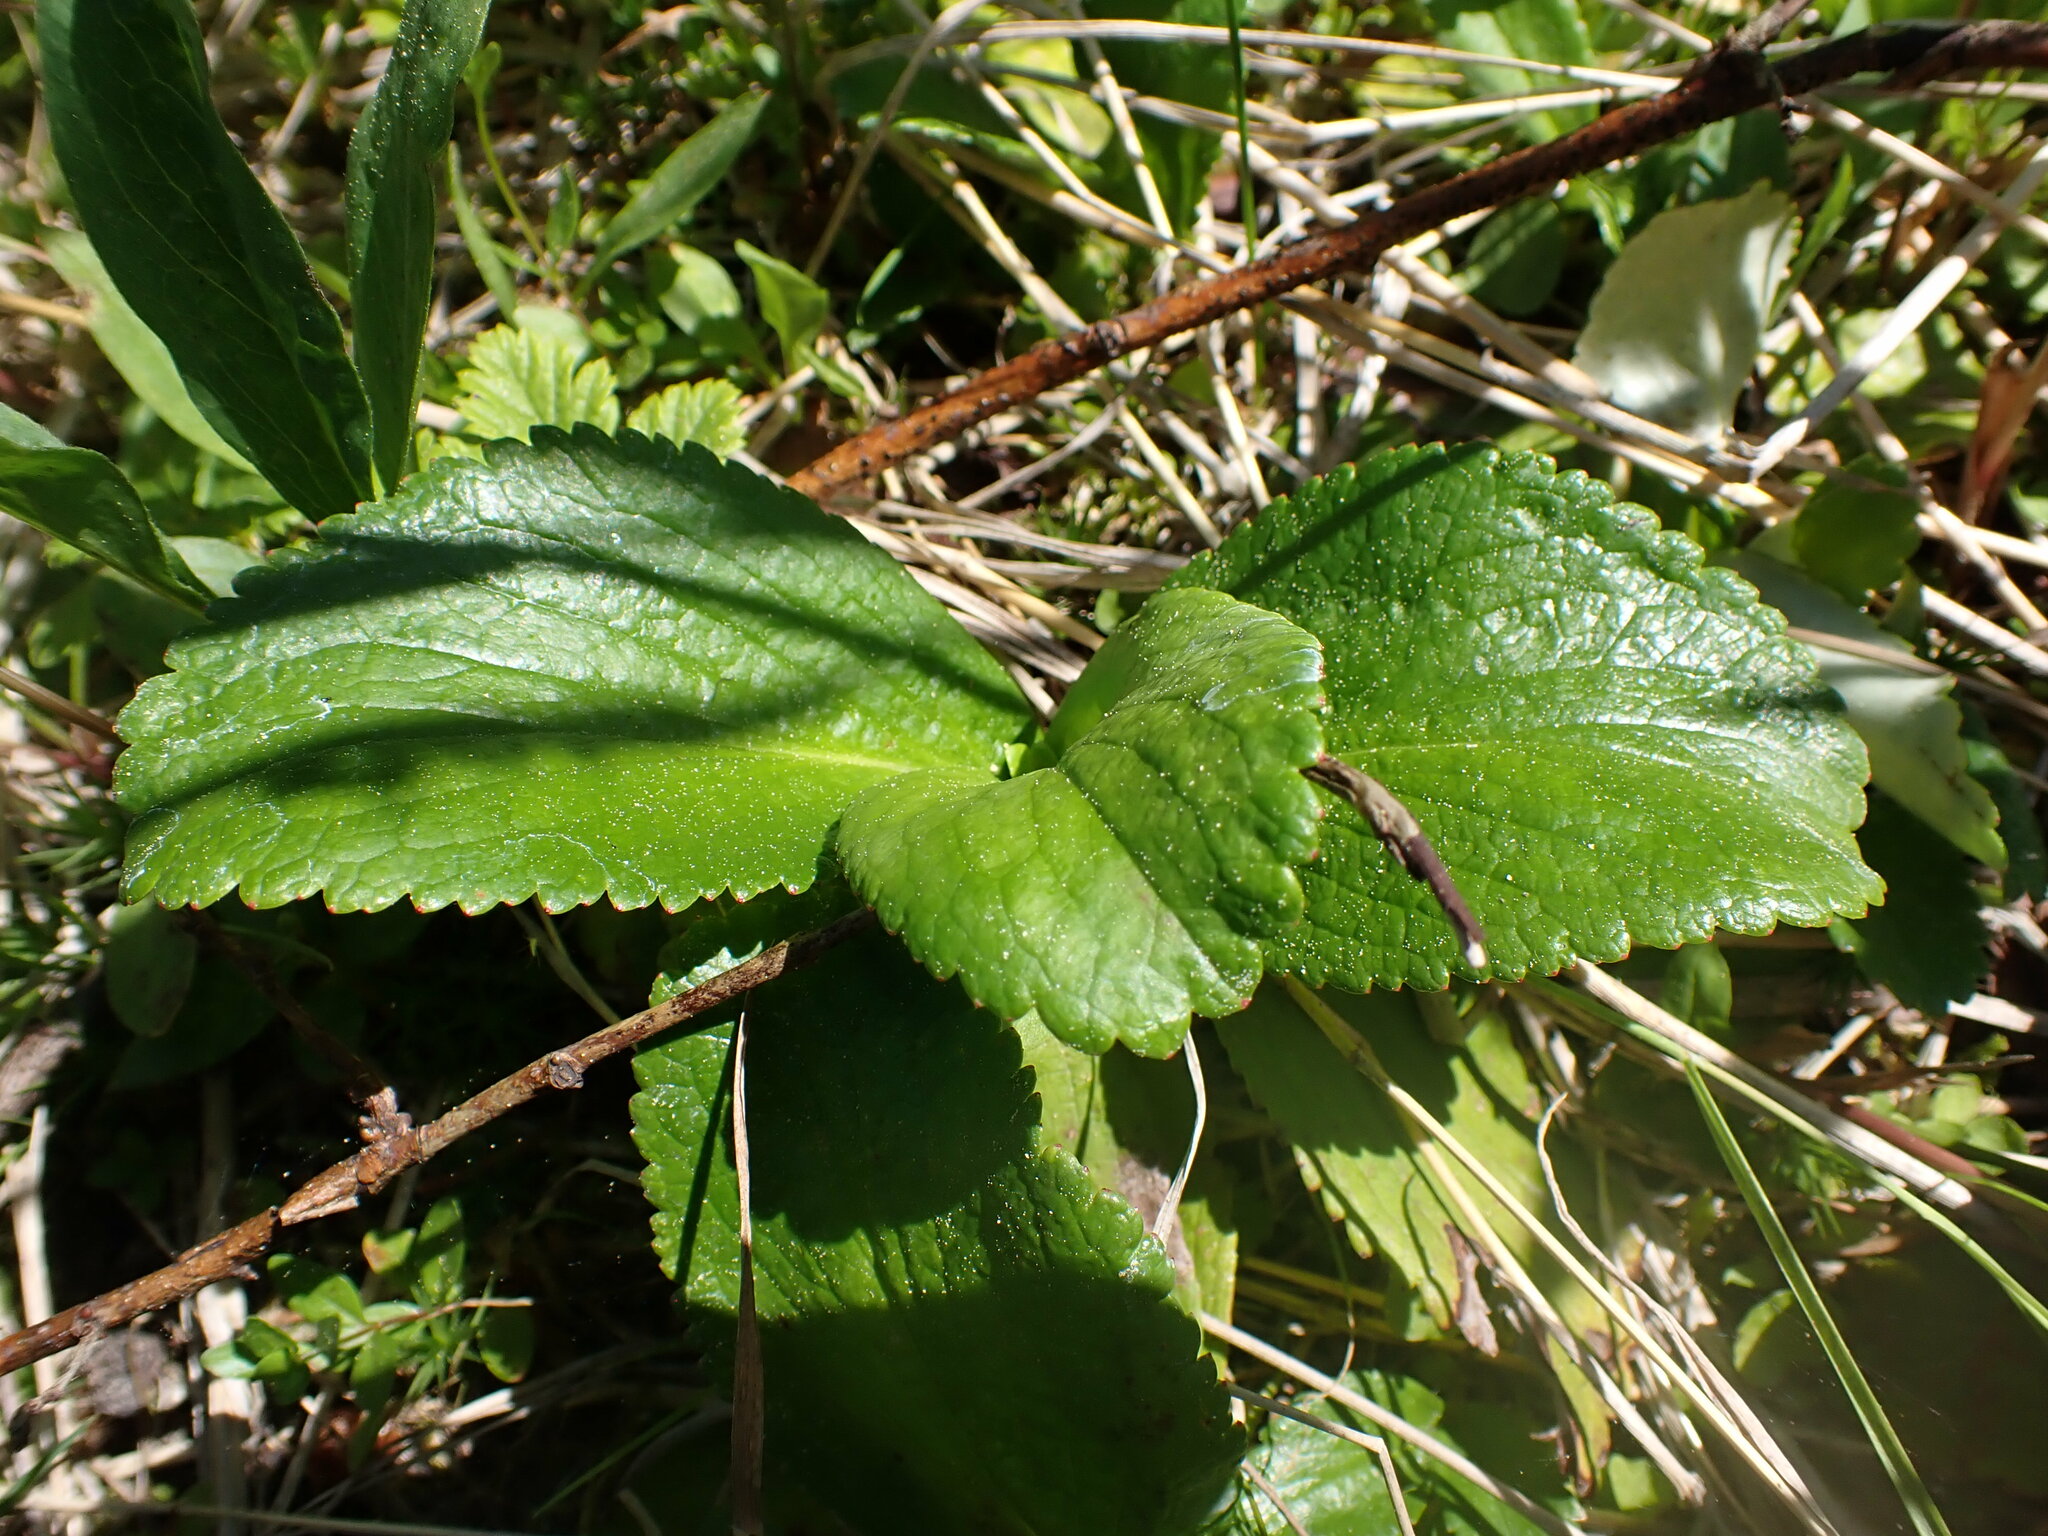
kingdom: Plantae
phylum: Tracheophyta
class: Magnoliopsida
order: Saxifragales
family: Saxifragaceae
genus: Leptarrhena
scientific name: Leptarrhena pyrolifolia
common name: Leatherleaf-saxifrage
